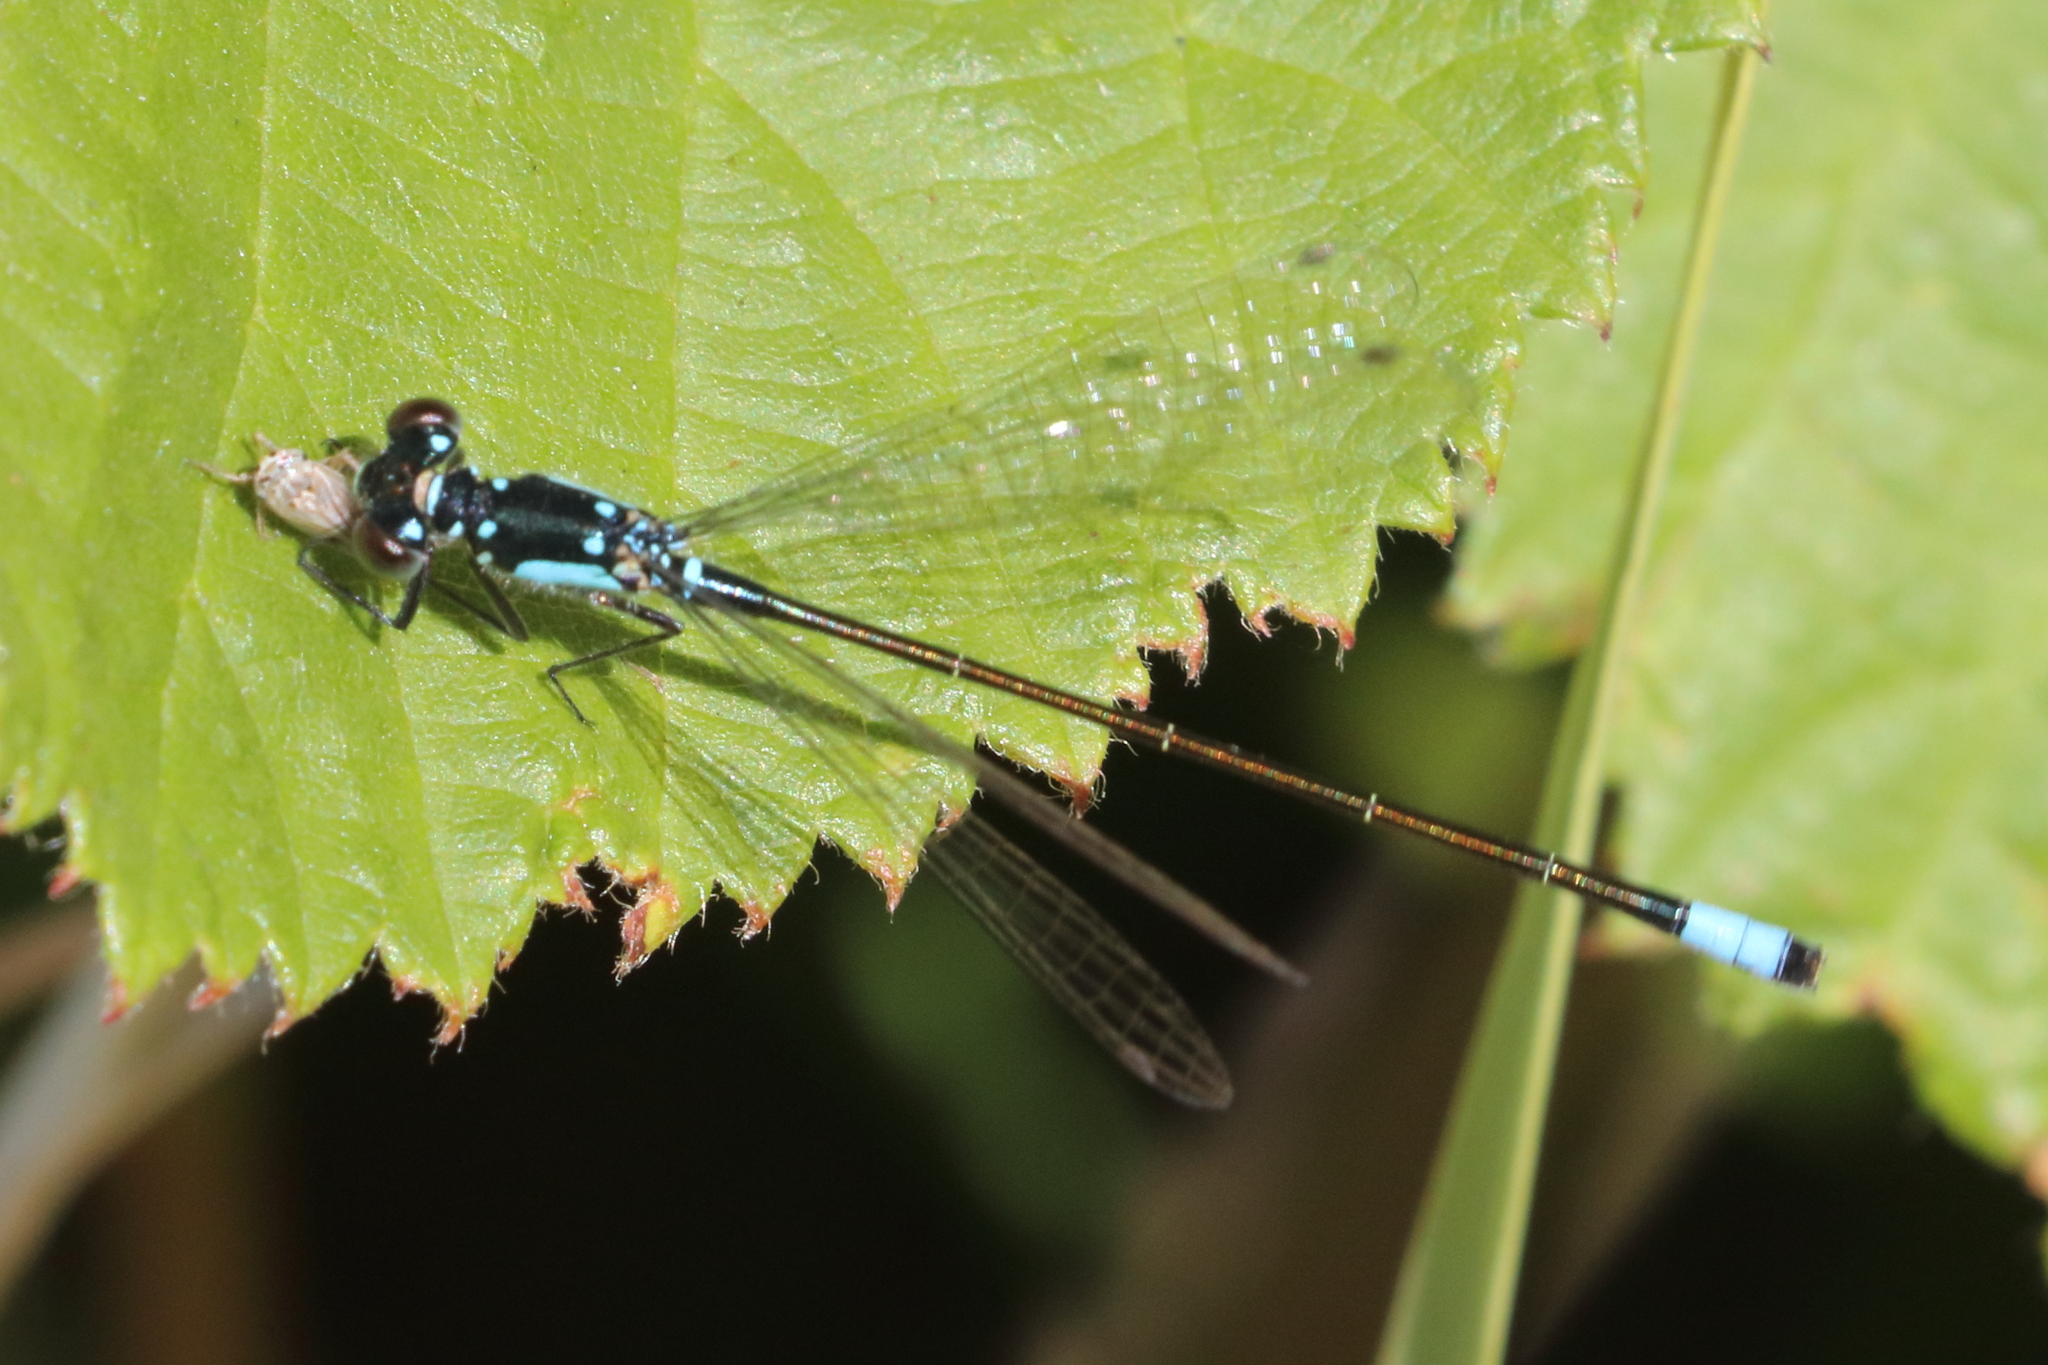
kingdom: Animalia
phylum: Arthropoda
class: Insecta
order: Odonata
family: Coenagrionidae
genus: Ischnura
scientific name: Ischnura cervula
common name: Pacific forktail
